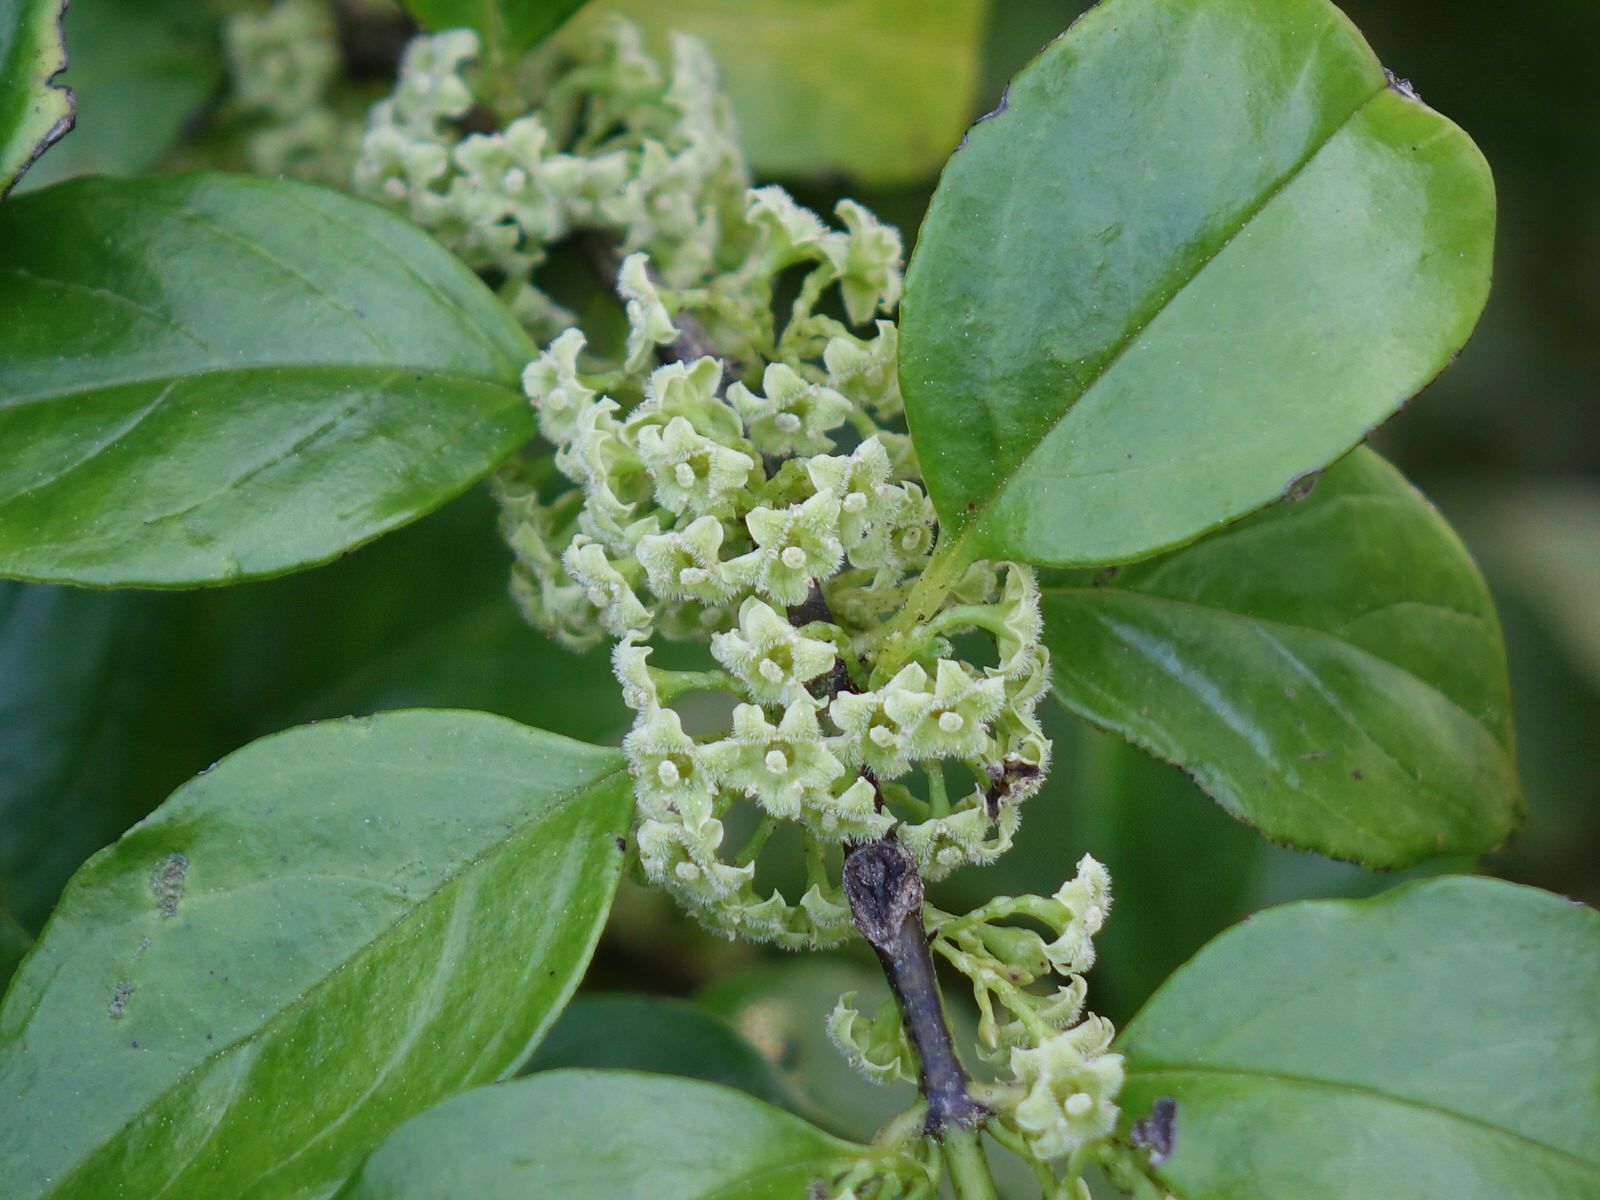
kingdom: Plantae
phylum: Tracheophyta
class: Magnoliopsida
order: Gentianales
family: Loganiaceae
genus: Geniostoma
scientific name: Geniostoma ligustrifolium
